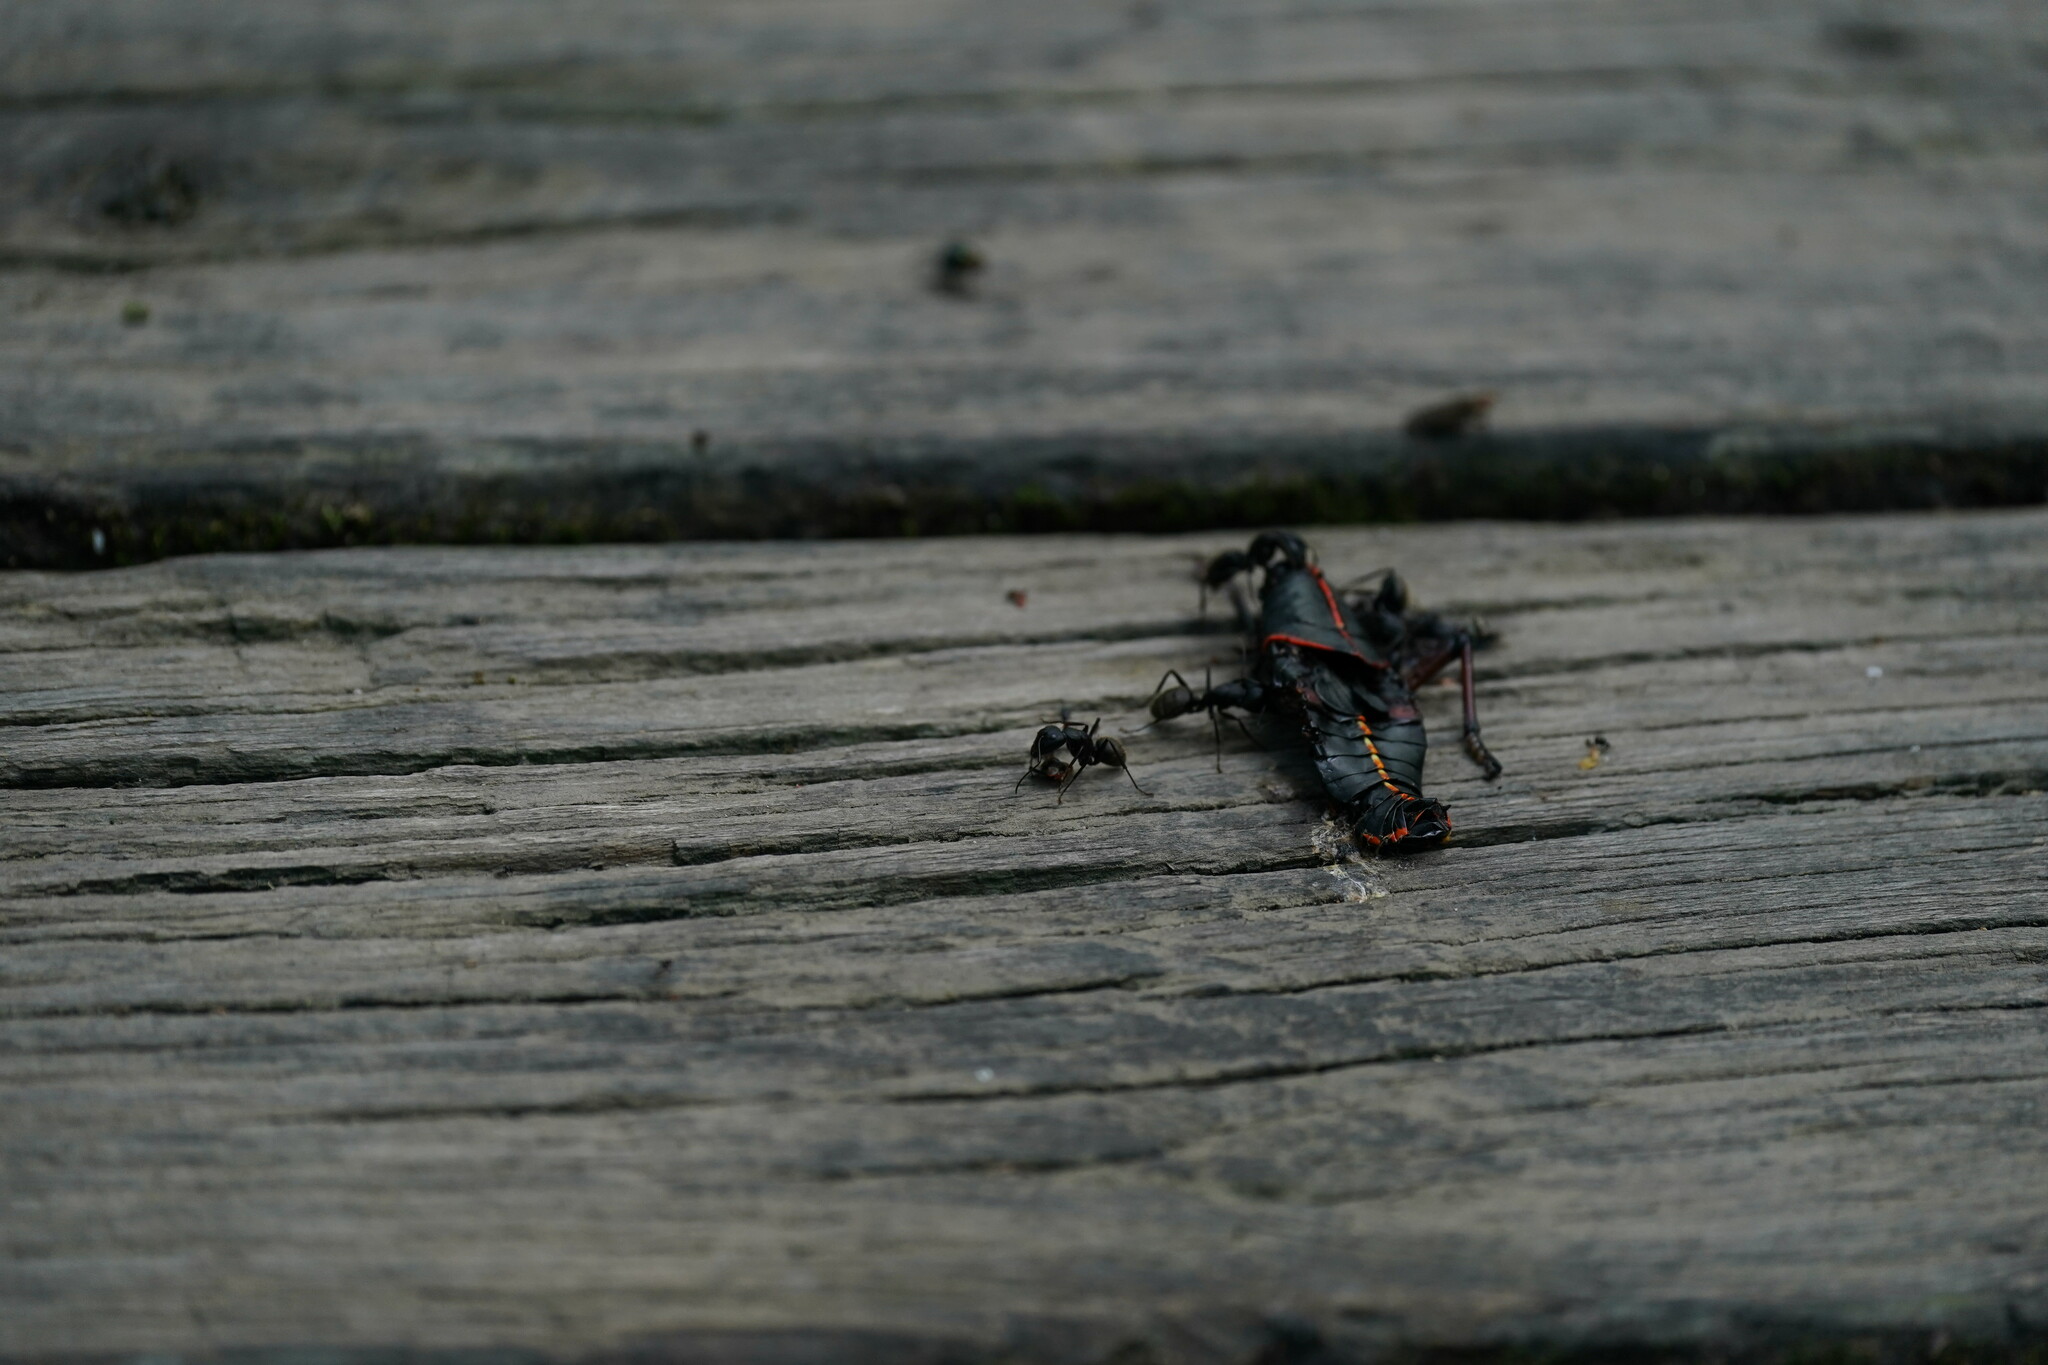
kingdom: Animalia
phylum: Arthropoda
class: Insecta
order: Hymenoptera
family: Formicidae
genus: Camponotus
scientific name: Camponotus pennsylvanicus
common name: Black carpenter ant
